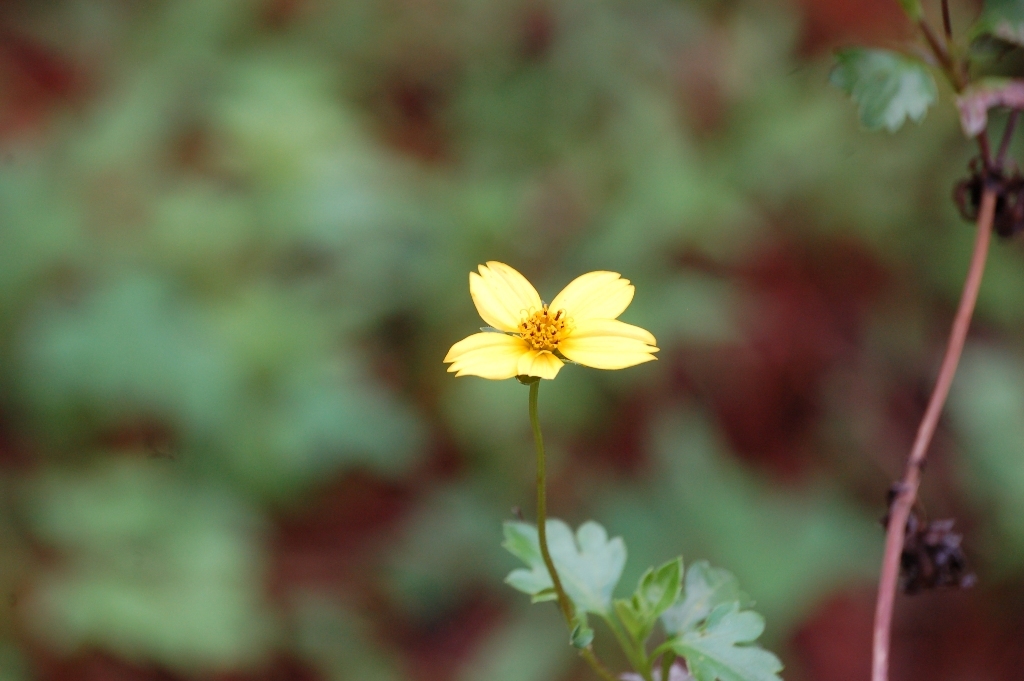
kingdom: Plantae
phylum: Tracheophyta
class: Magnoliopsida
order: Asterales
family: Asteraceae
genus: Bidens
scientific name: Bidens ostruthioides
